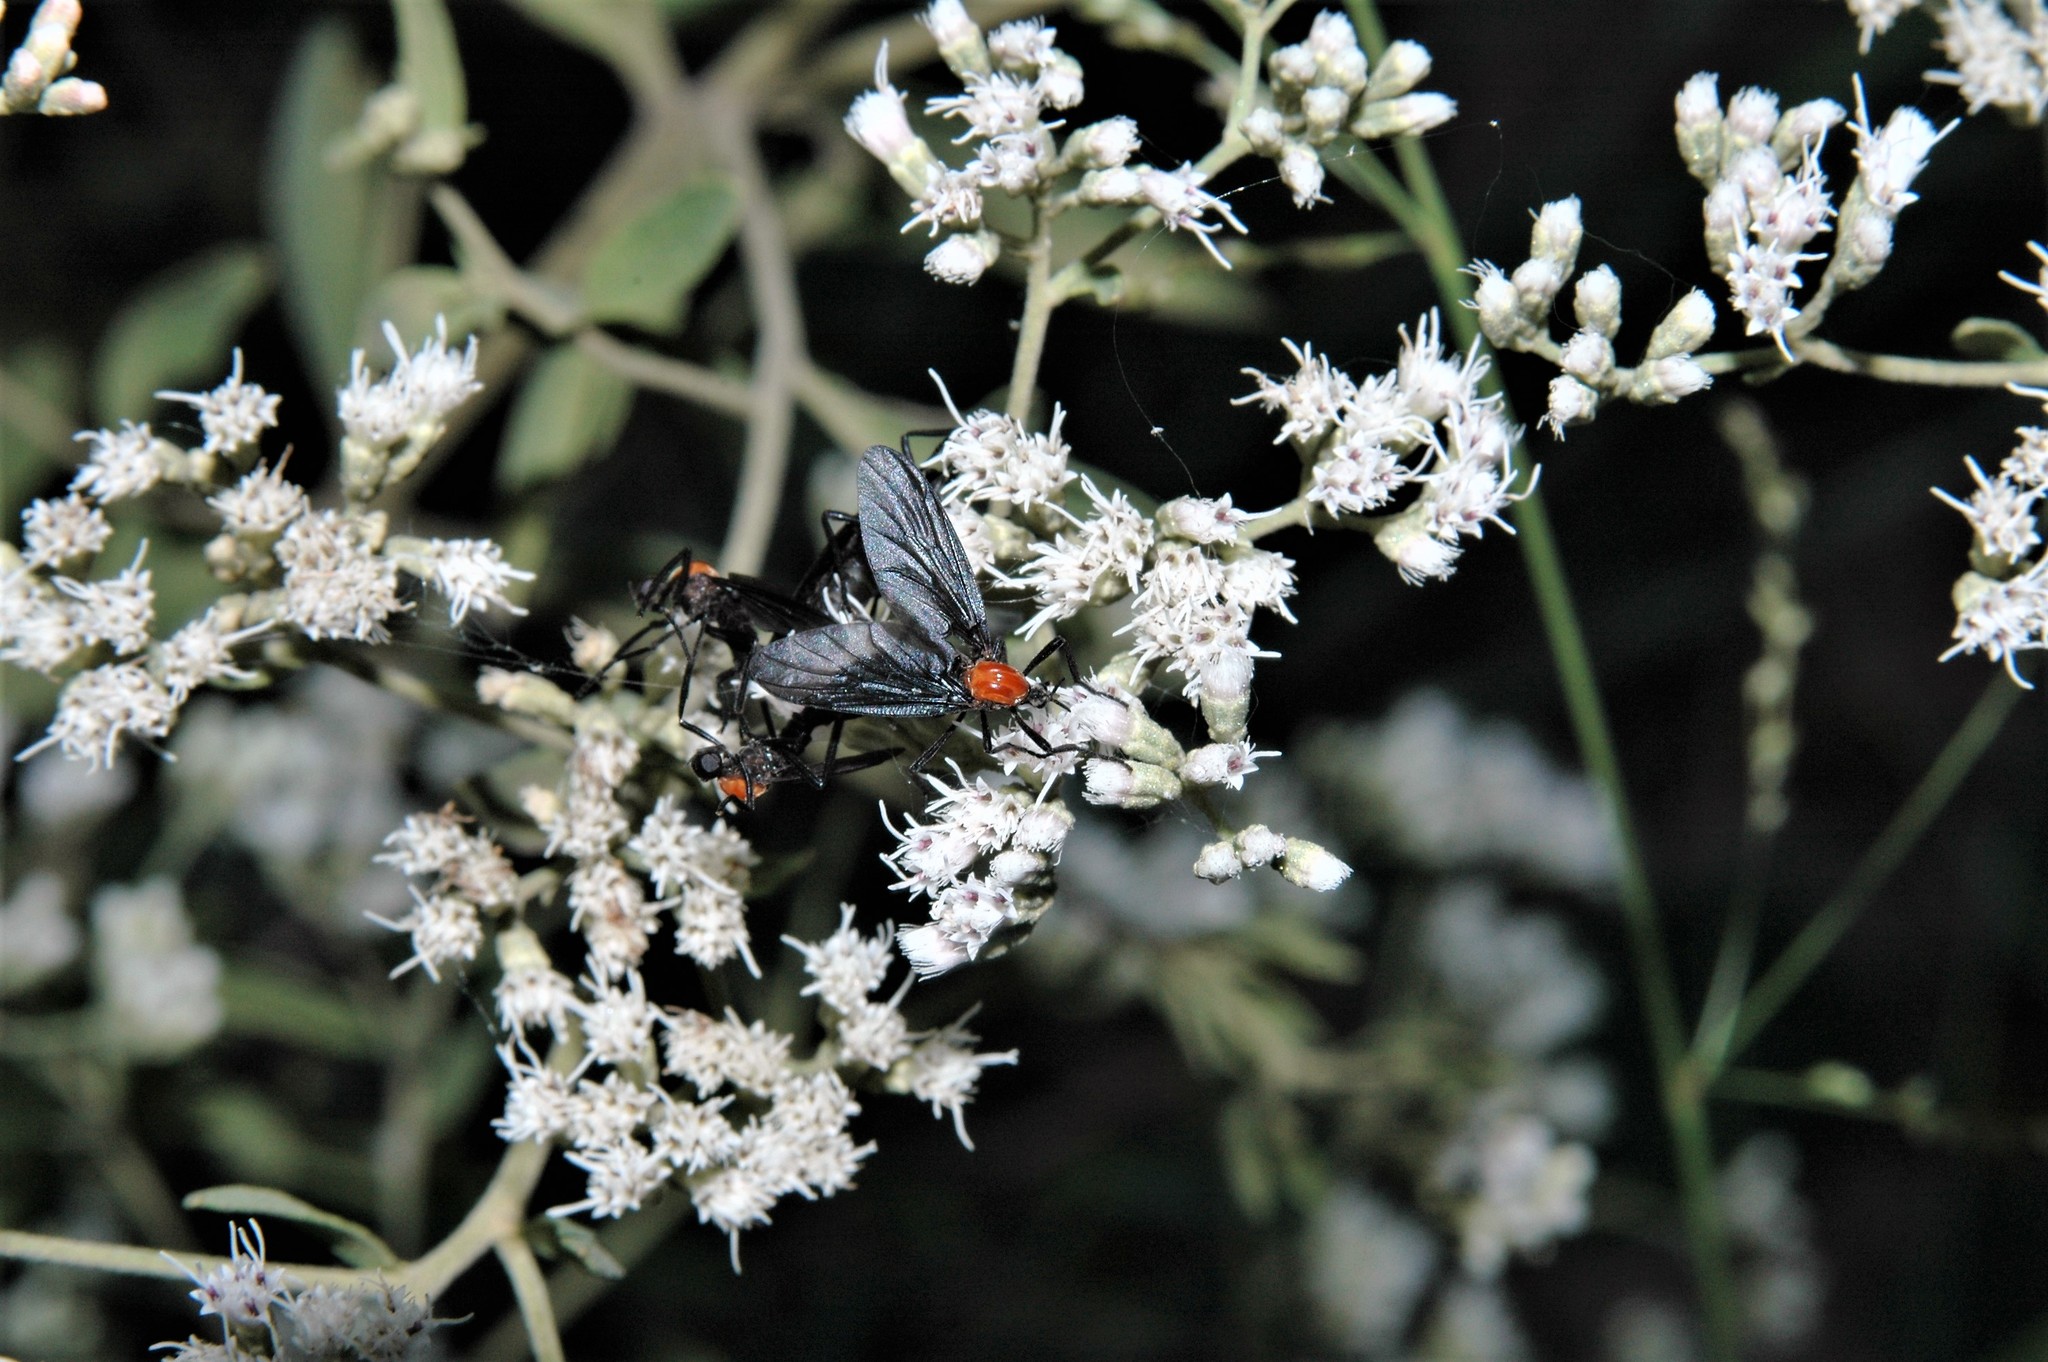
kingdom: Animalia
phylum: Arthropoda
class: Insecta
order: Diptera
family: Bibionidae
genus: Plecia
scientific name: Plecia nearctica
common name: March fly
